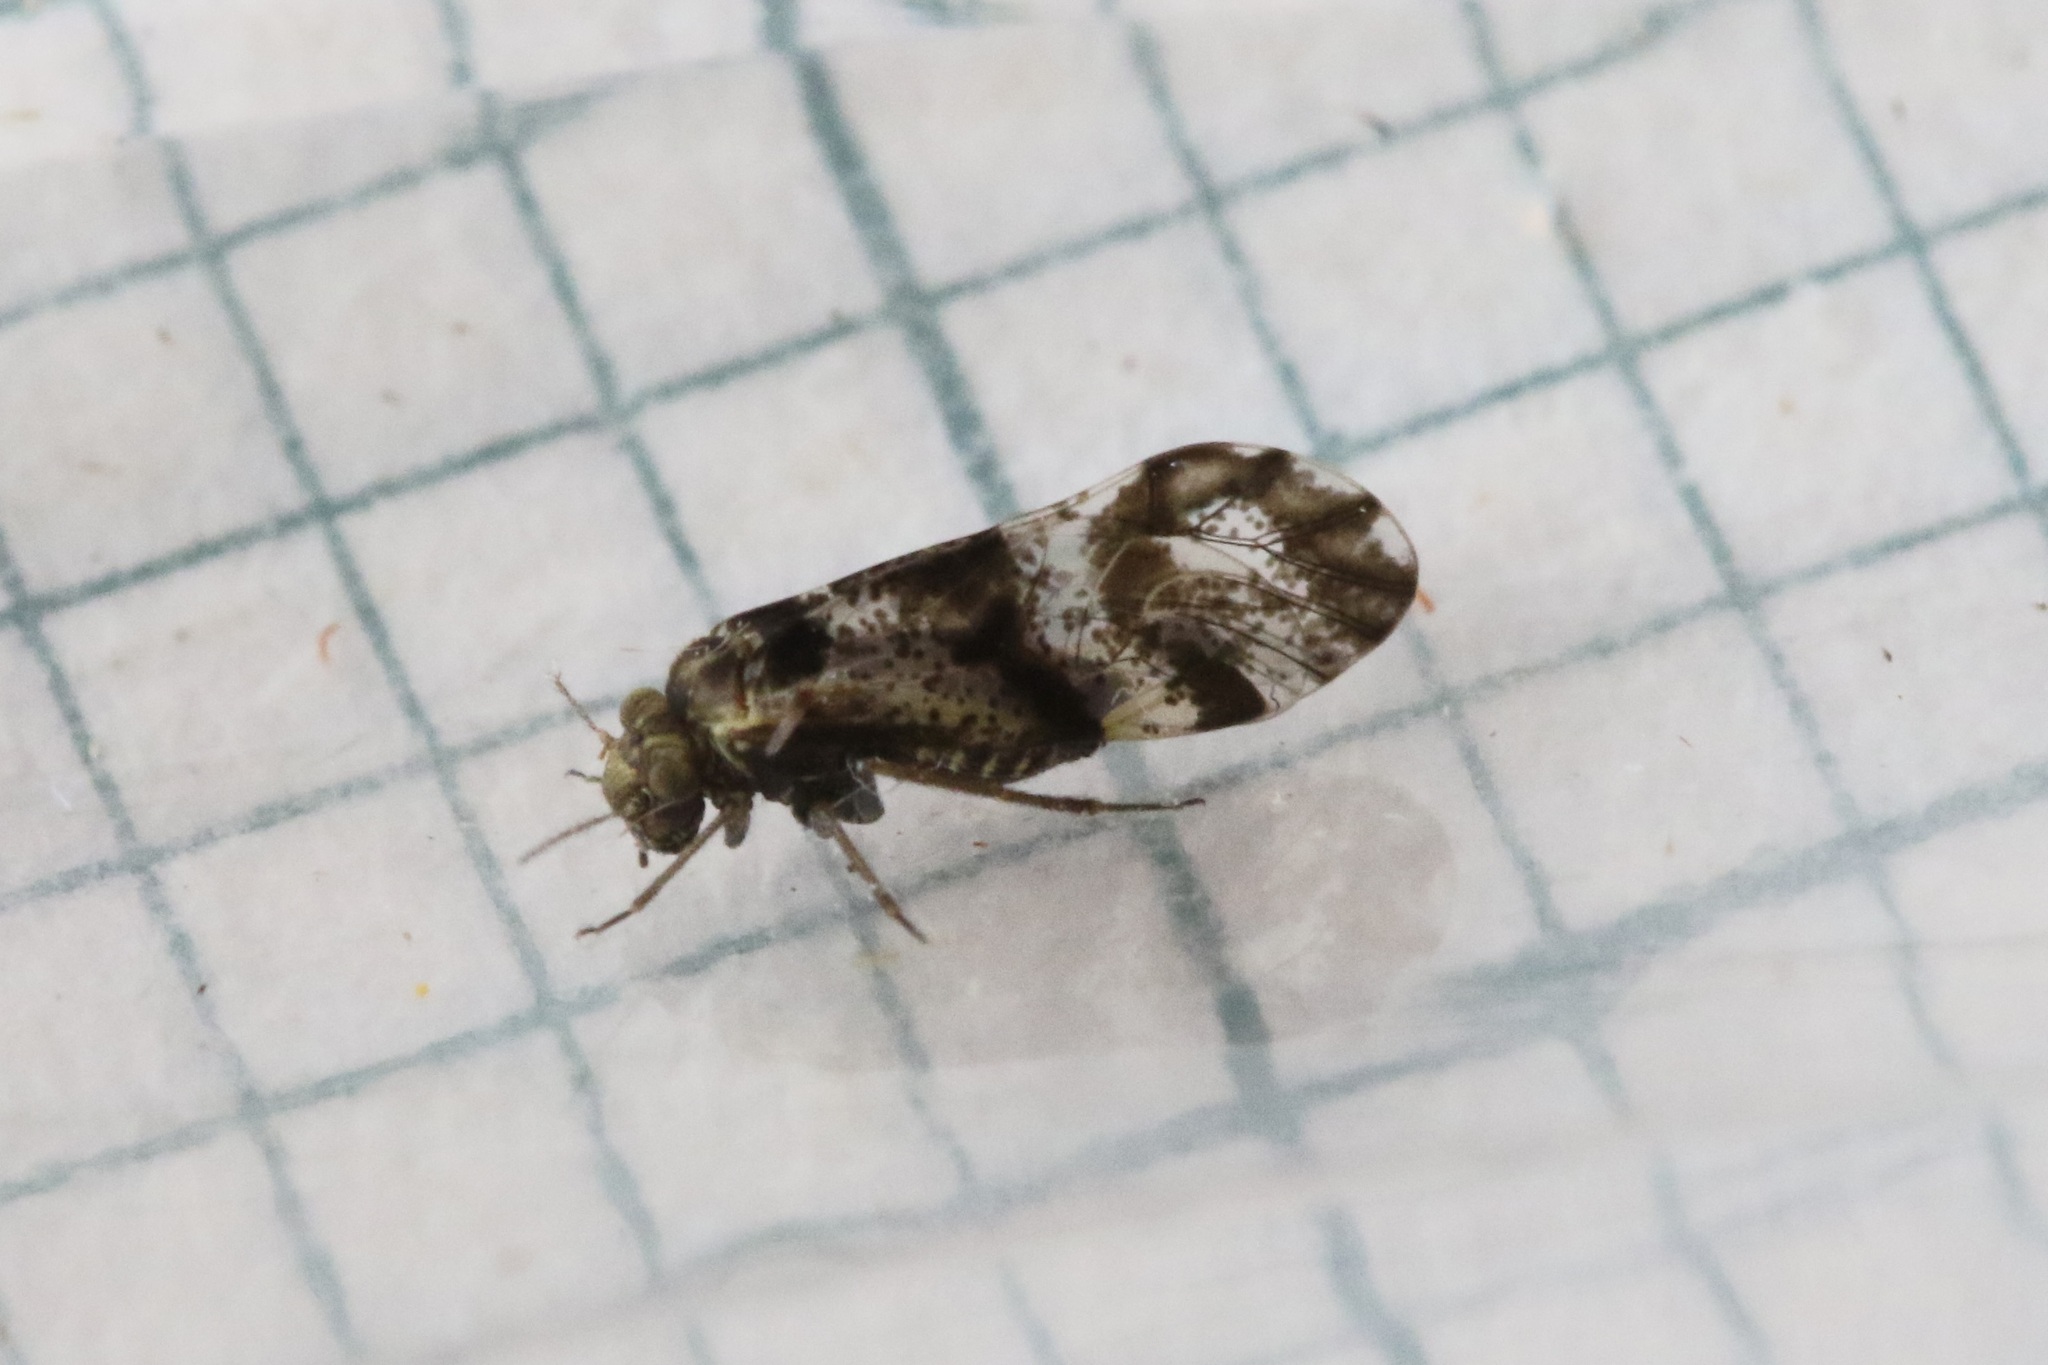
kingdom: Animalia
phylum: Arthropoda
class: Insecta
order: Psocodea
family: Psocidae
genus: Loensia
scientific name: Loensia fasciata
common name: Common bark louse
